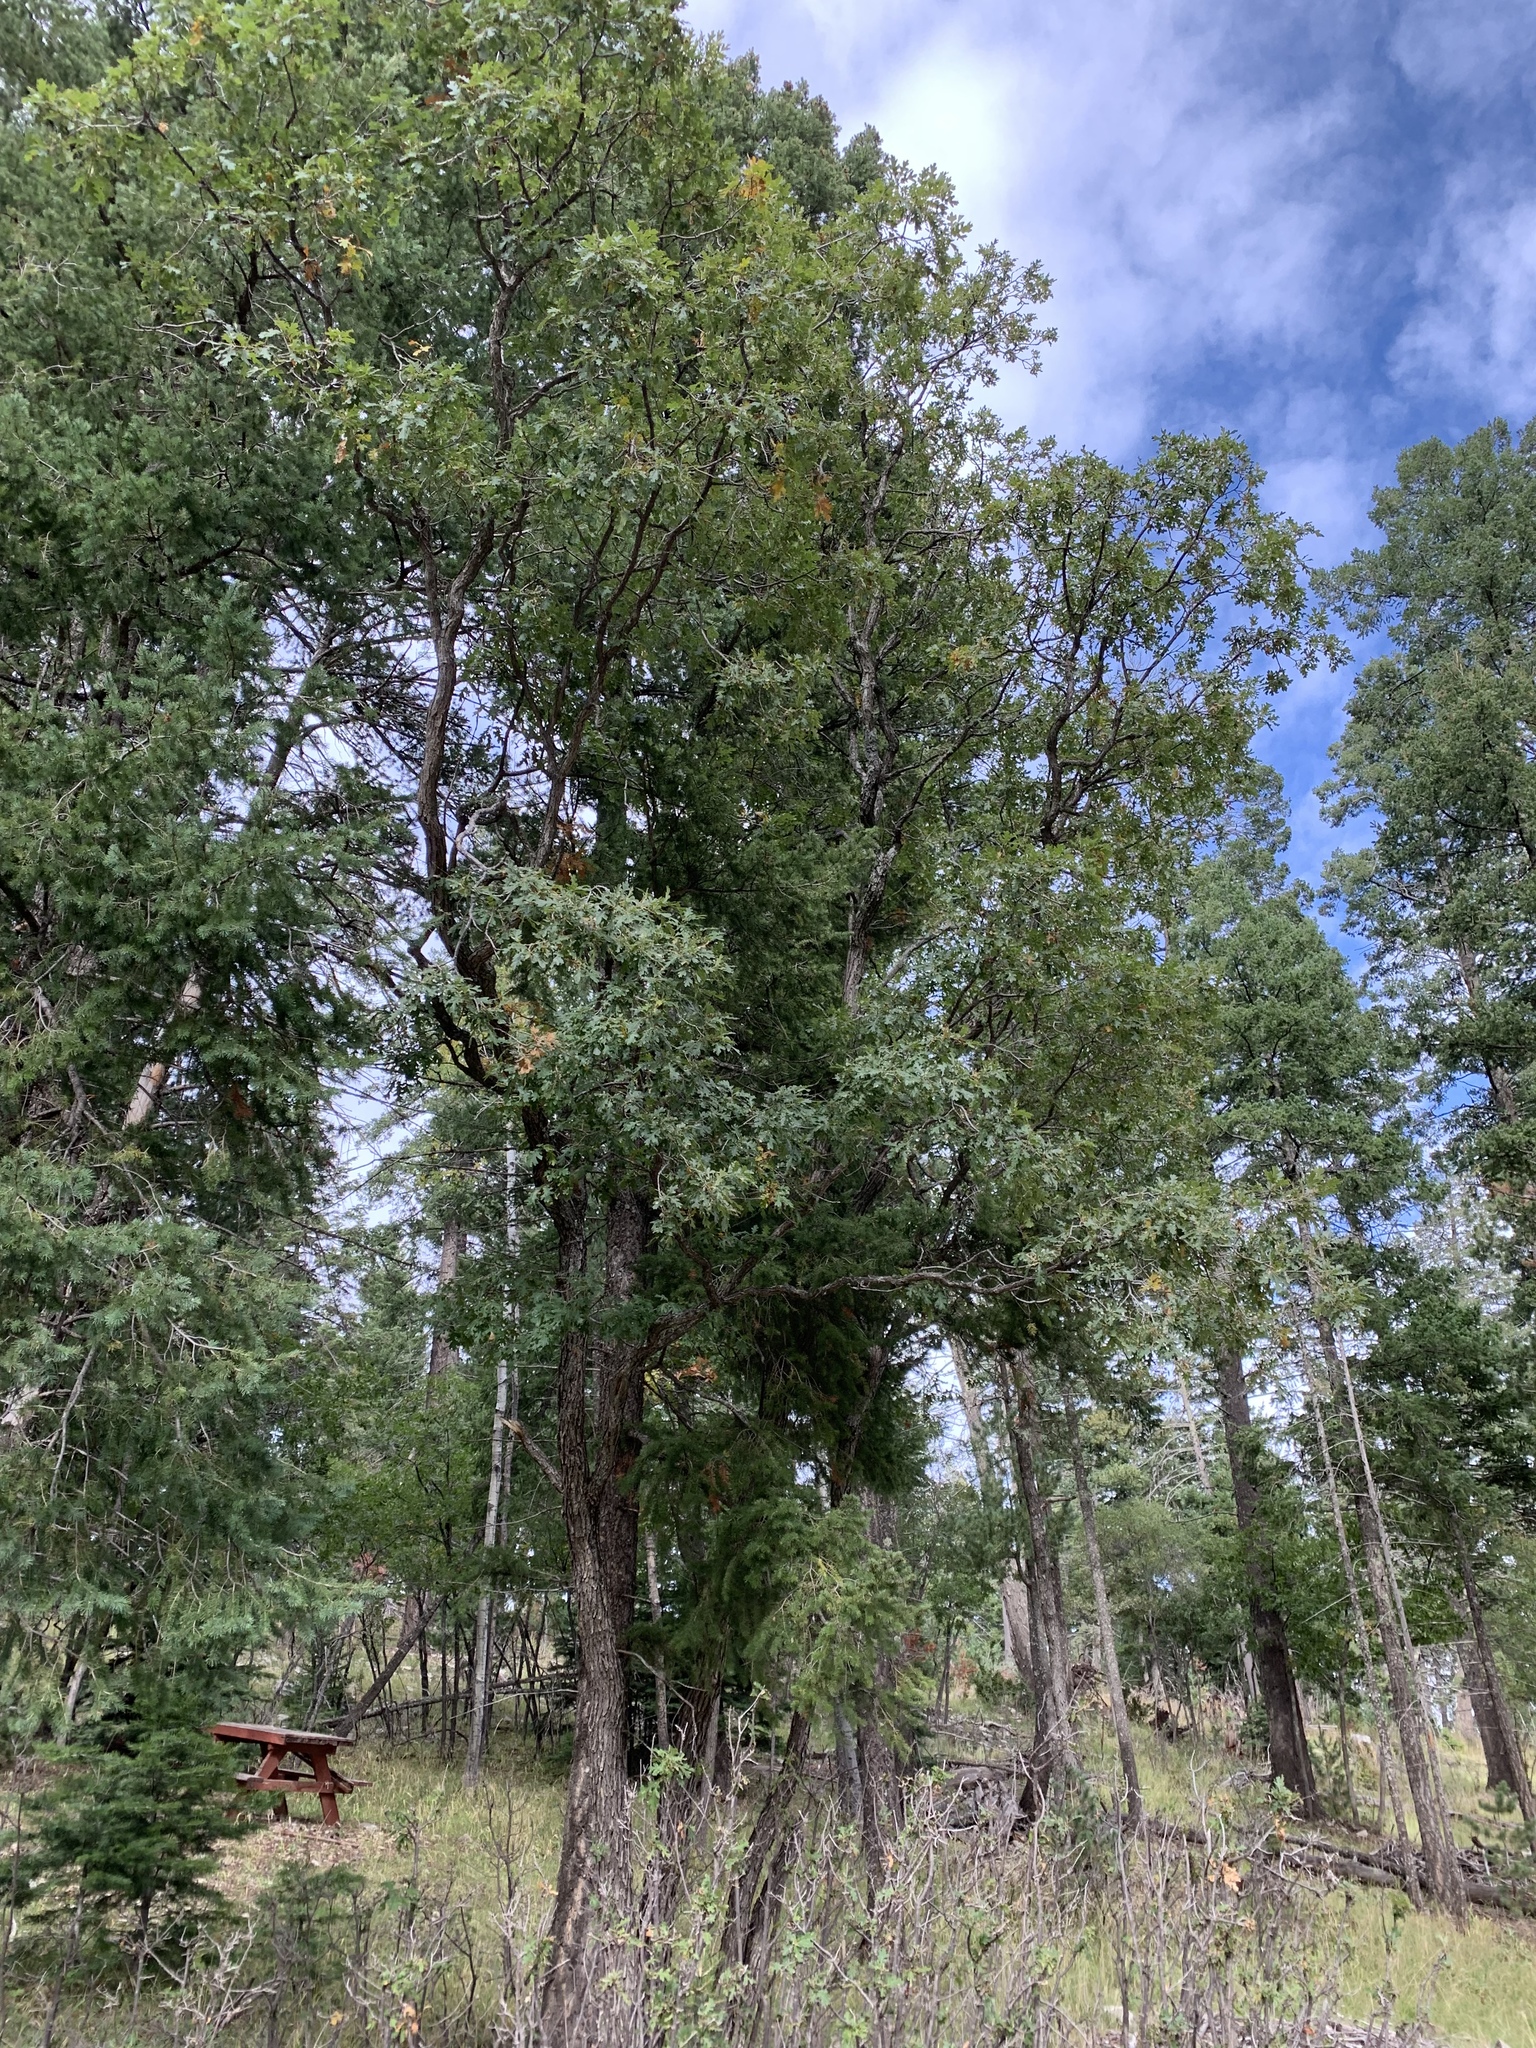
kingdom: Plantae
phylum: Tracheophyta
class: Magnoliopsida
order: Fagales
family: Fagaceae
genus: Quercus
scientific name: Quercus gambelii
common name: Gambel oak
